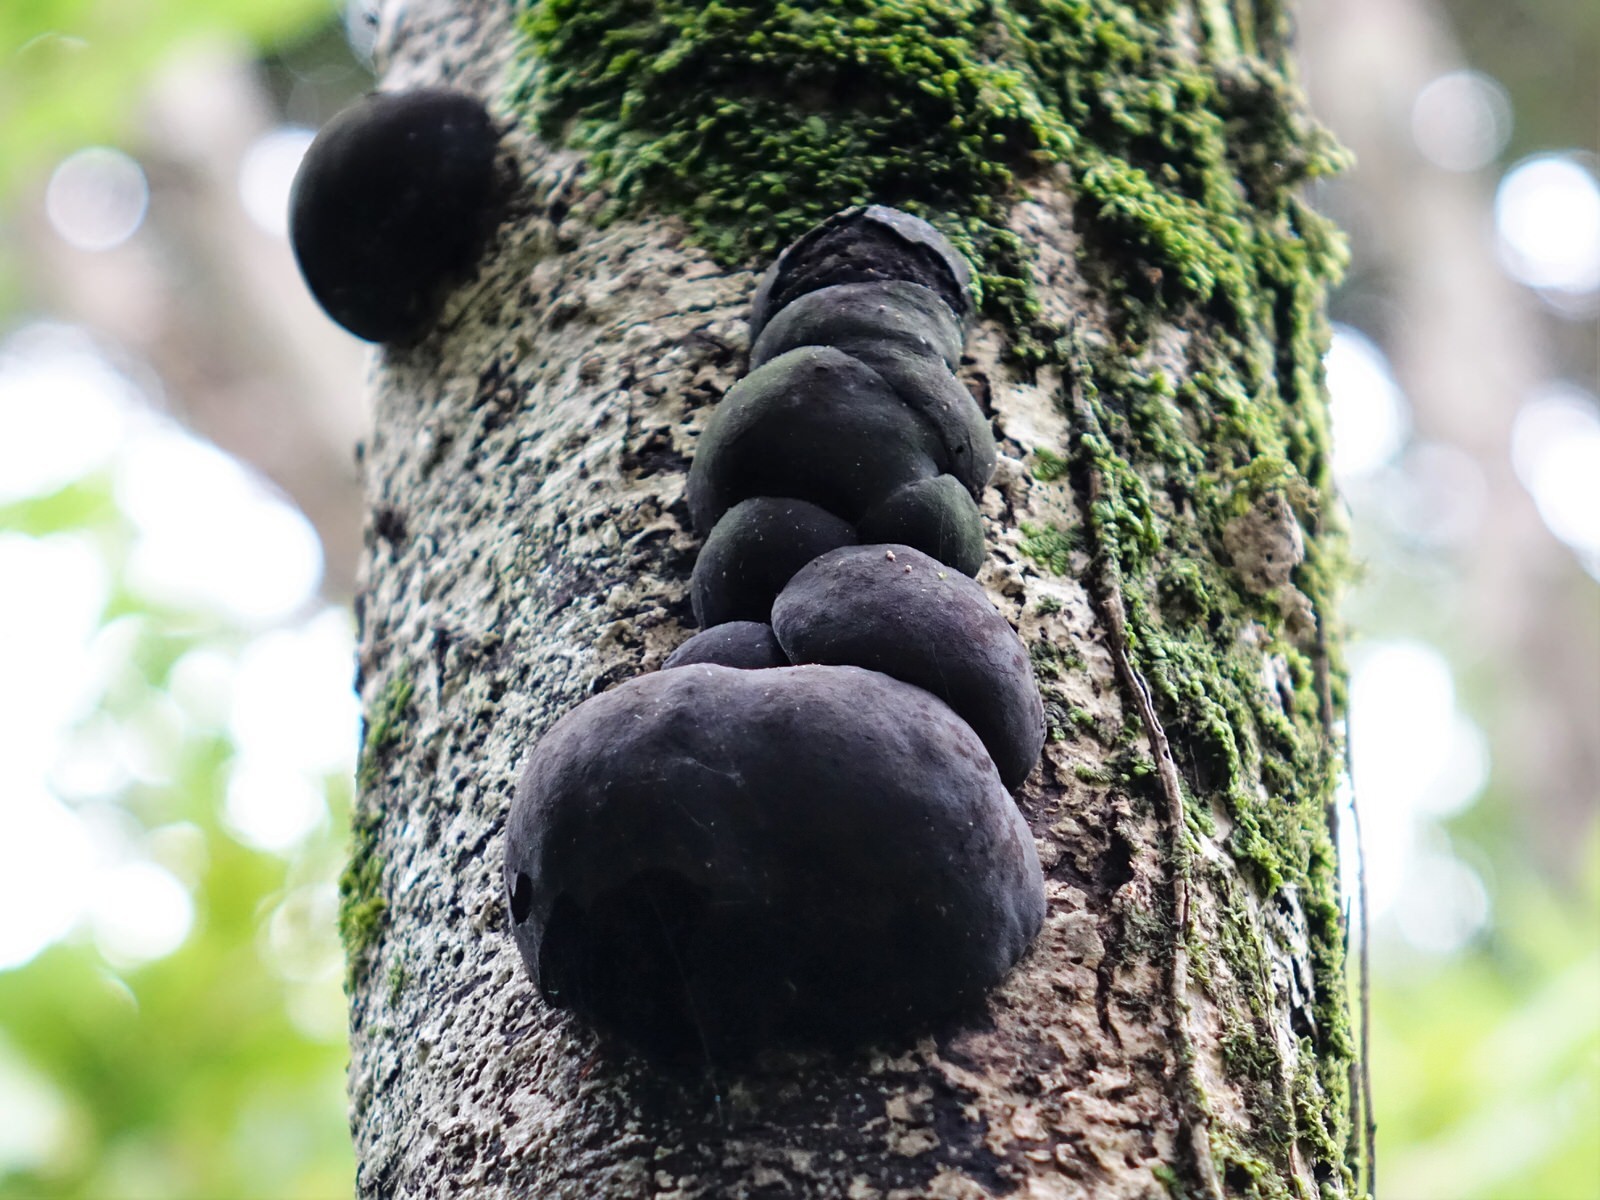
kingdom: Fungi
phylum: Ascomycota
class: Sordariomycetes
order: Xylariales
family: Hypoxylaceae
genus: Daldinia
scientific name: Daldinia
